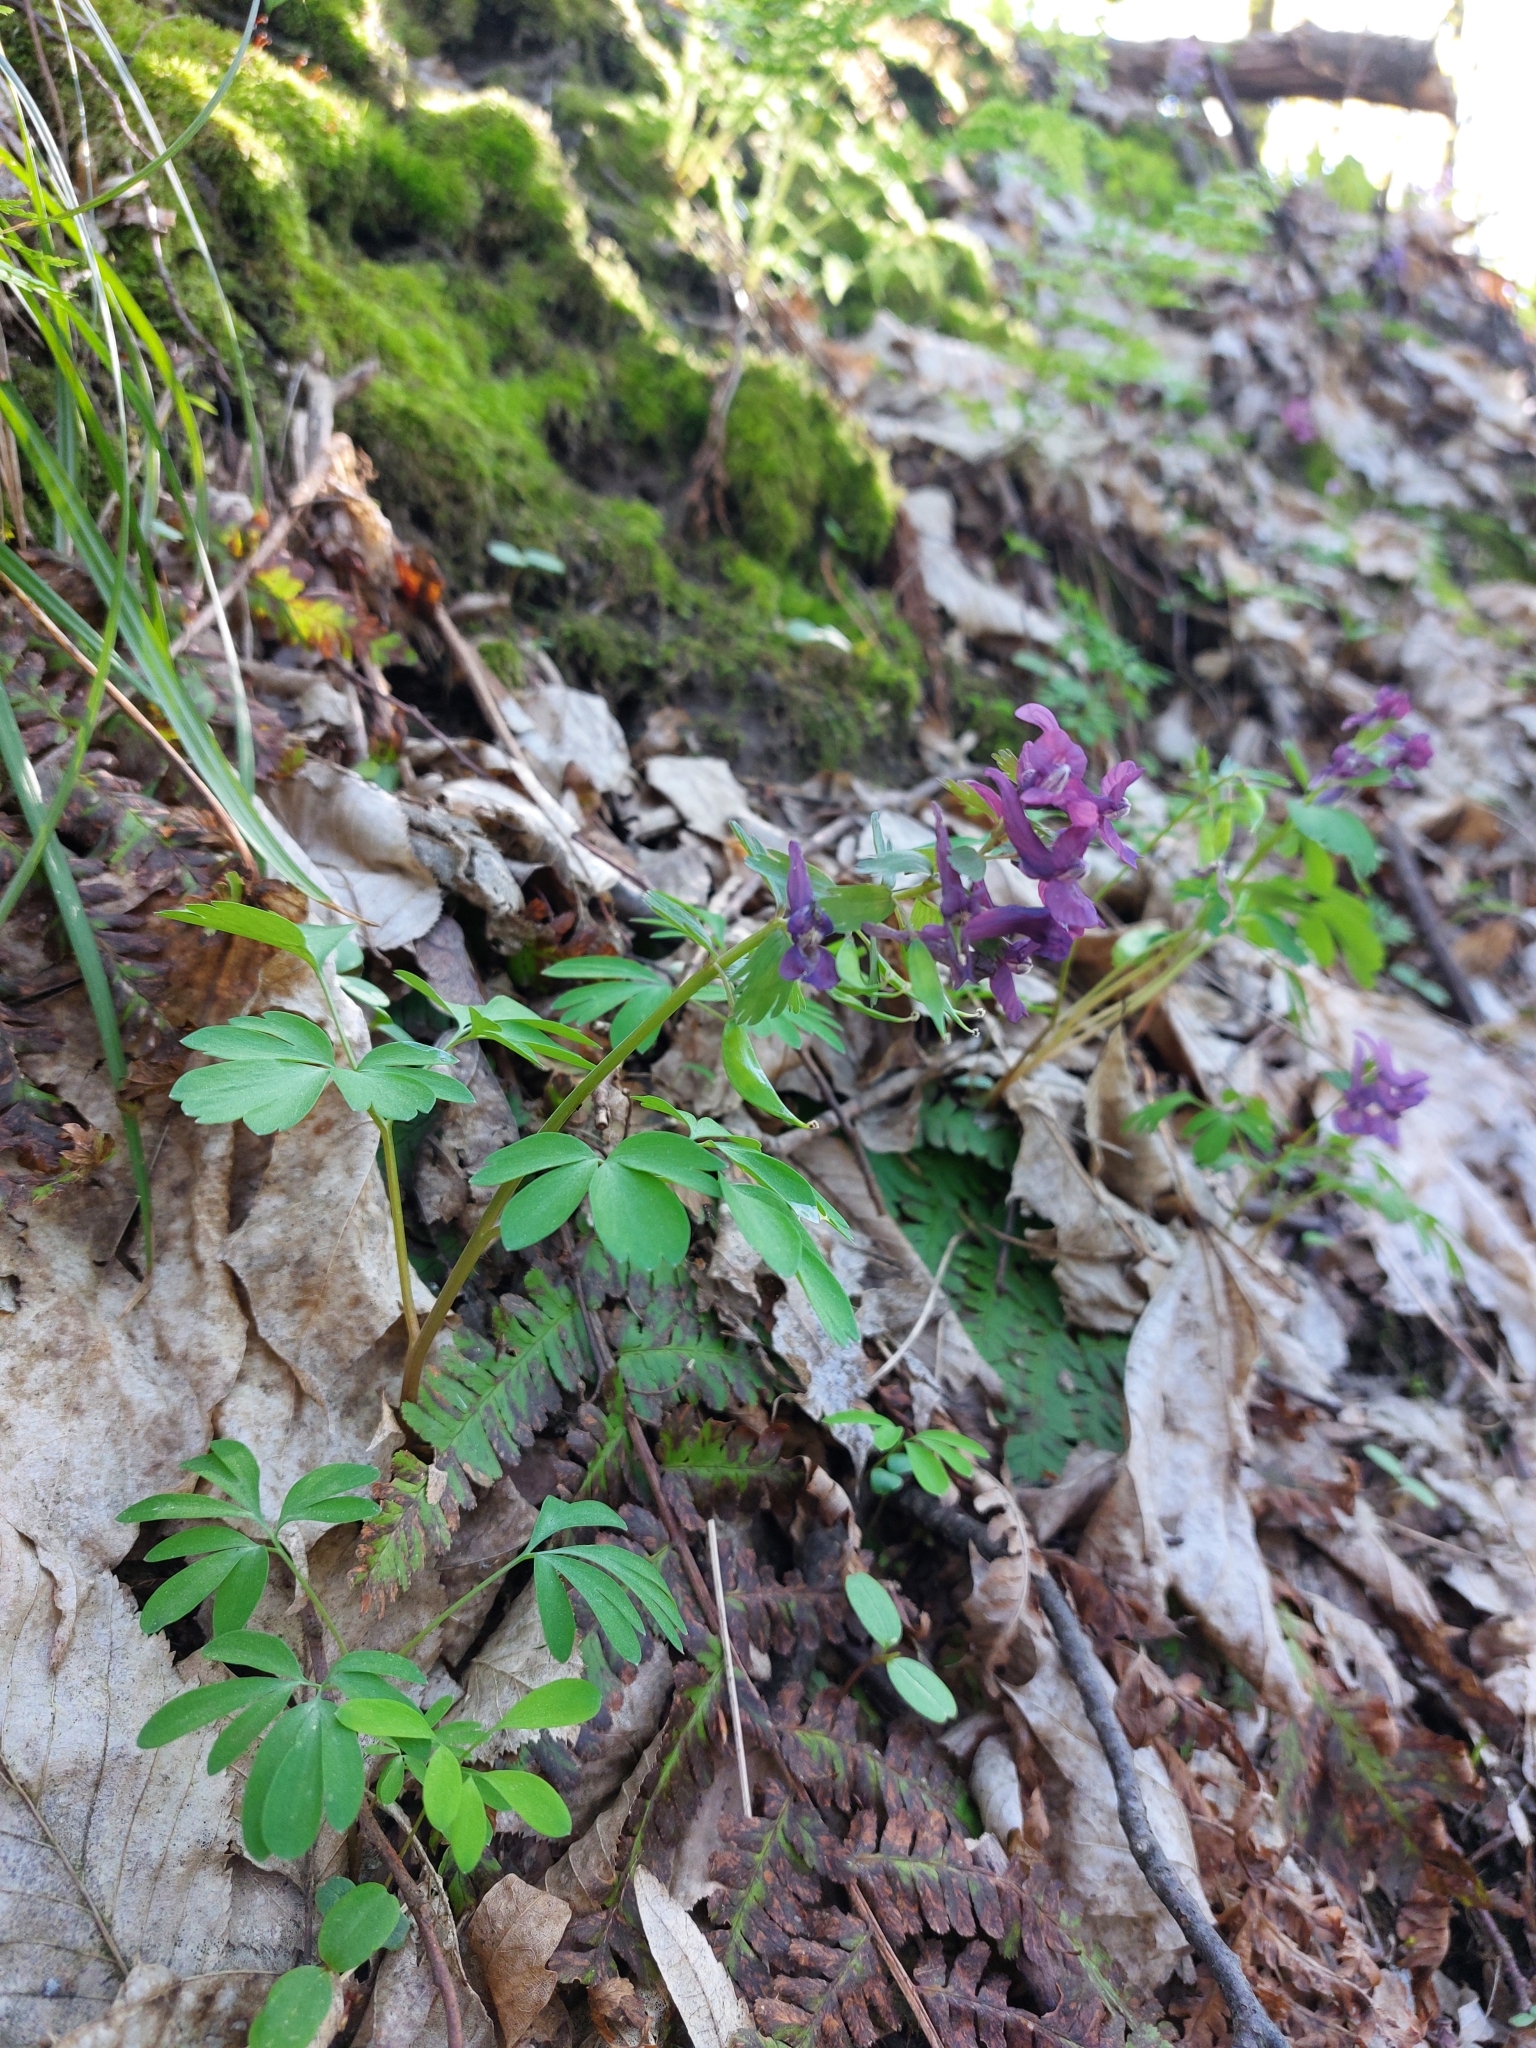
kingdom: Plantae
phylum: Tracheophyta
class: Magnoliopsida
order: Ranunculales
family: Papaveraceae
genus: Corydalis
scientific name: Corydalis solida
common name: Bird-in-a-bush
